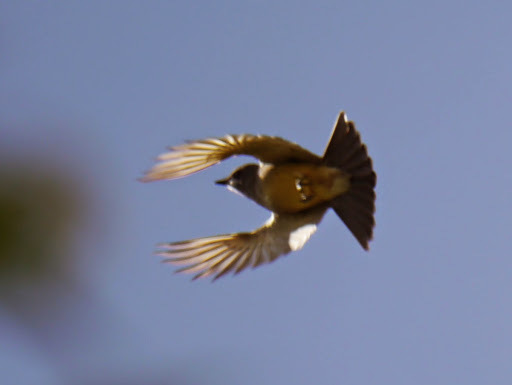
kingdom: Animalia
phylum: Chordata
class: Aves
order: Passeriformes
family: Tyrannidae
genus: Tyrannus
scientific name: Tyrannus vociferans
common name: Cassin's kingbird
